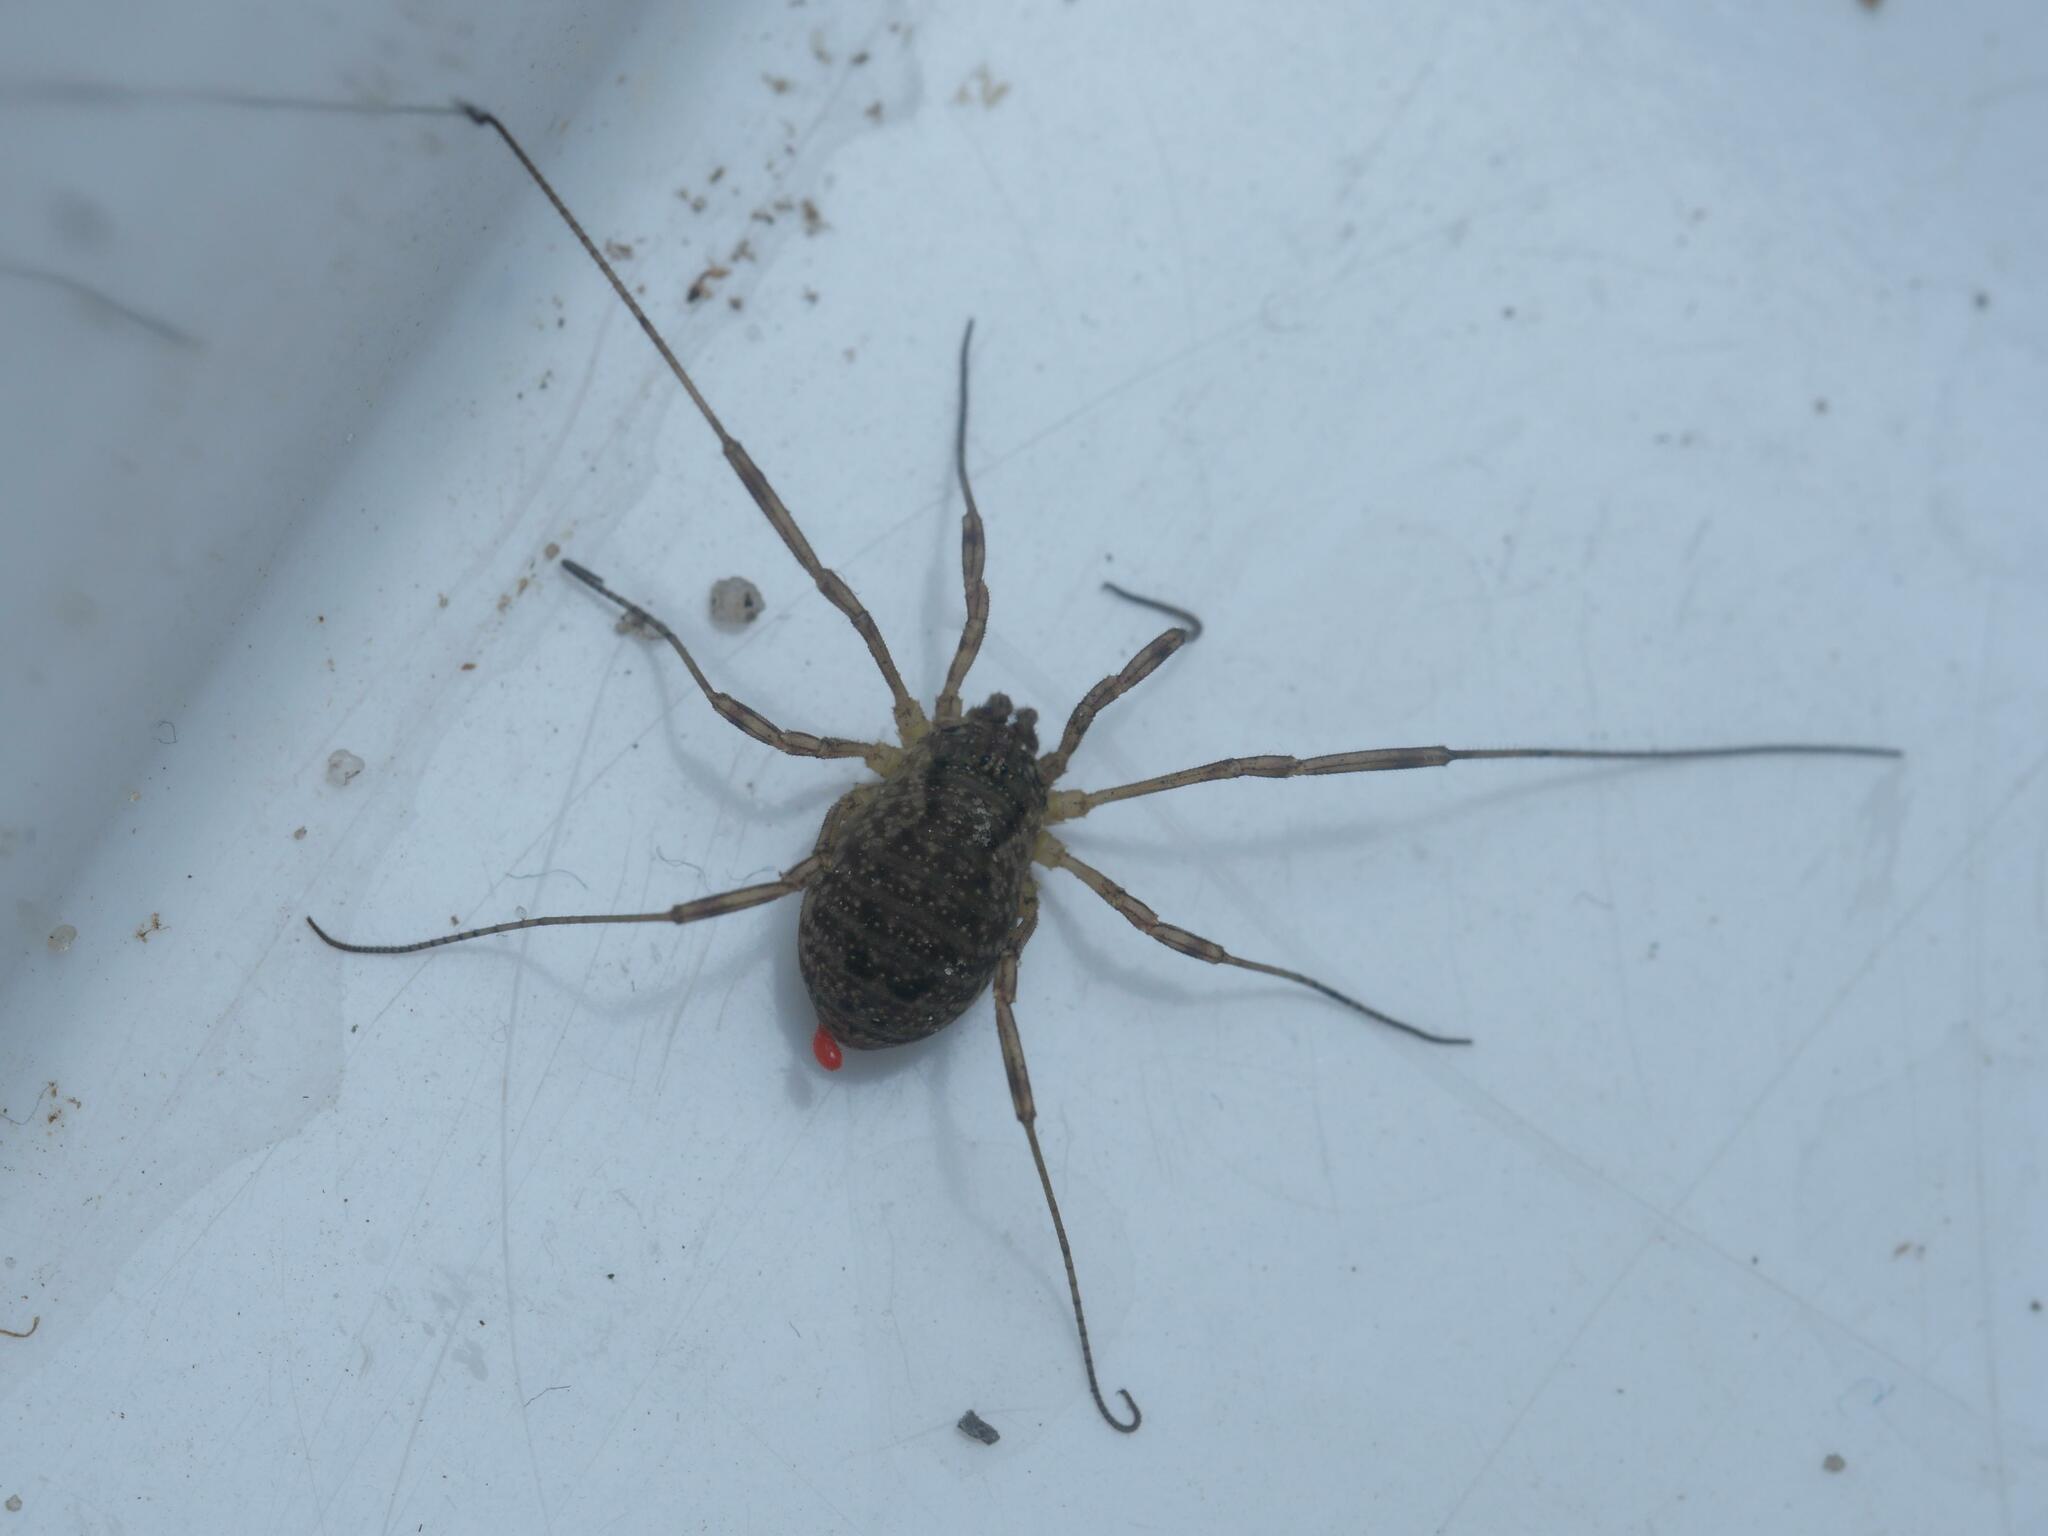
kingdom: Animalia
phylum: Arthropoda
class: Arachnida
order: Opiliones
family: Phalangiidae
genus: Oligolophus
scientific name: Oligolophus tridens
